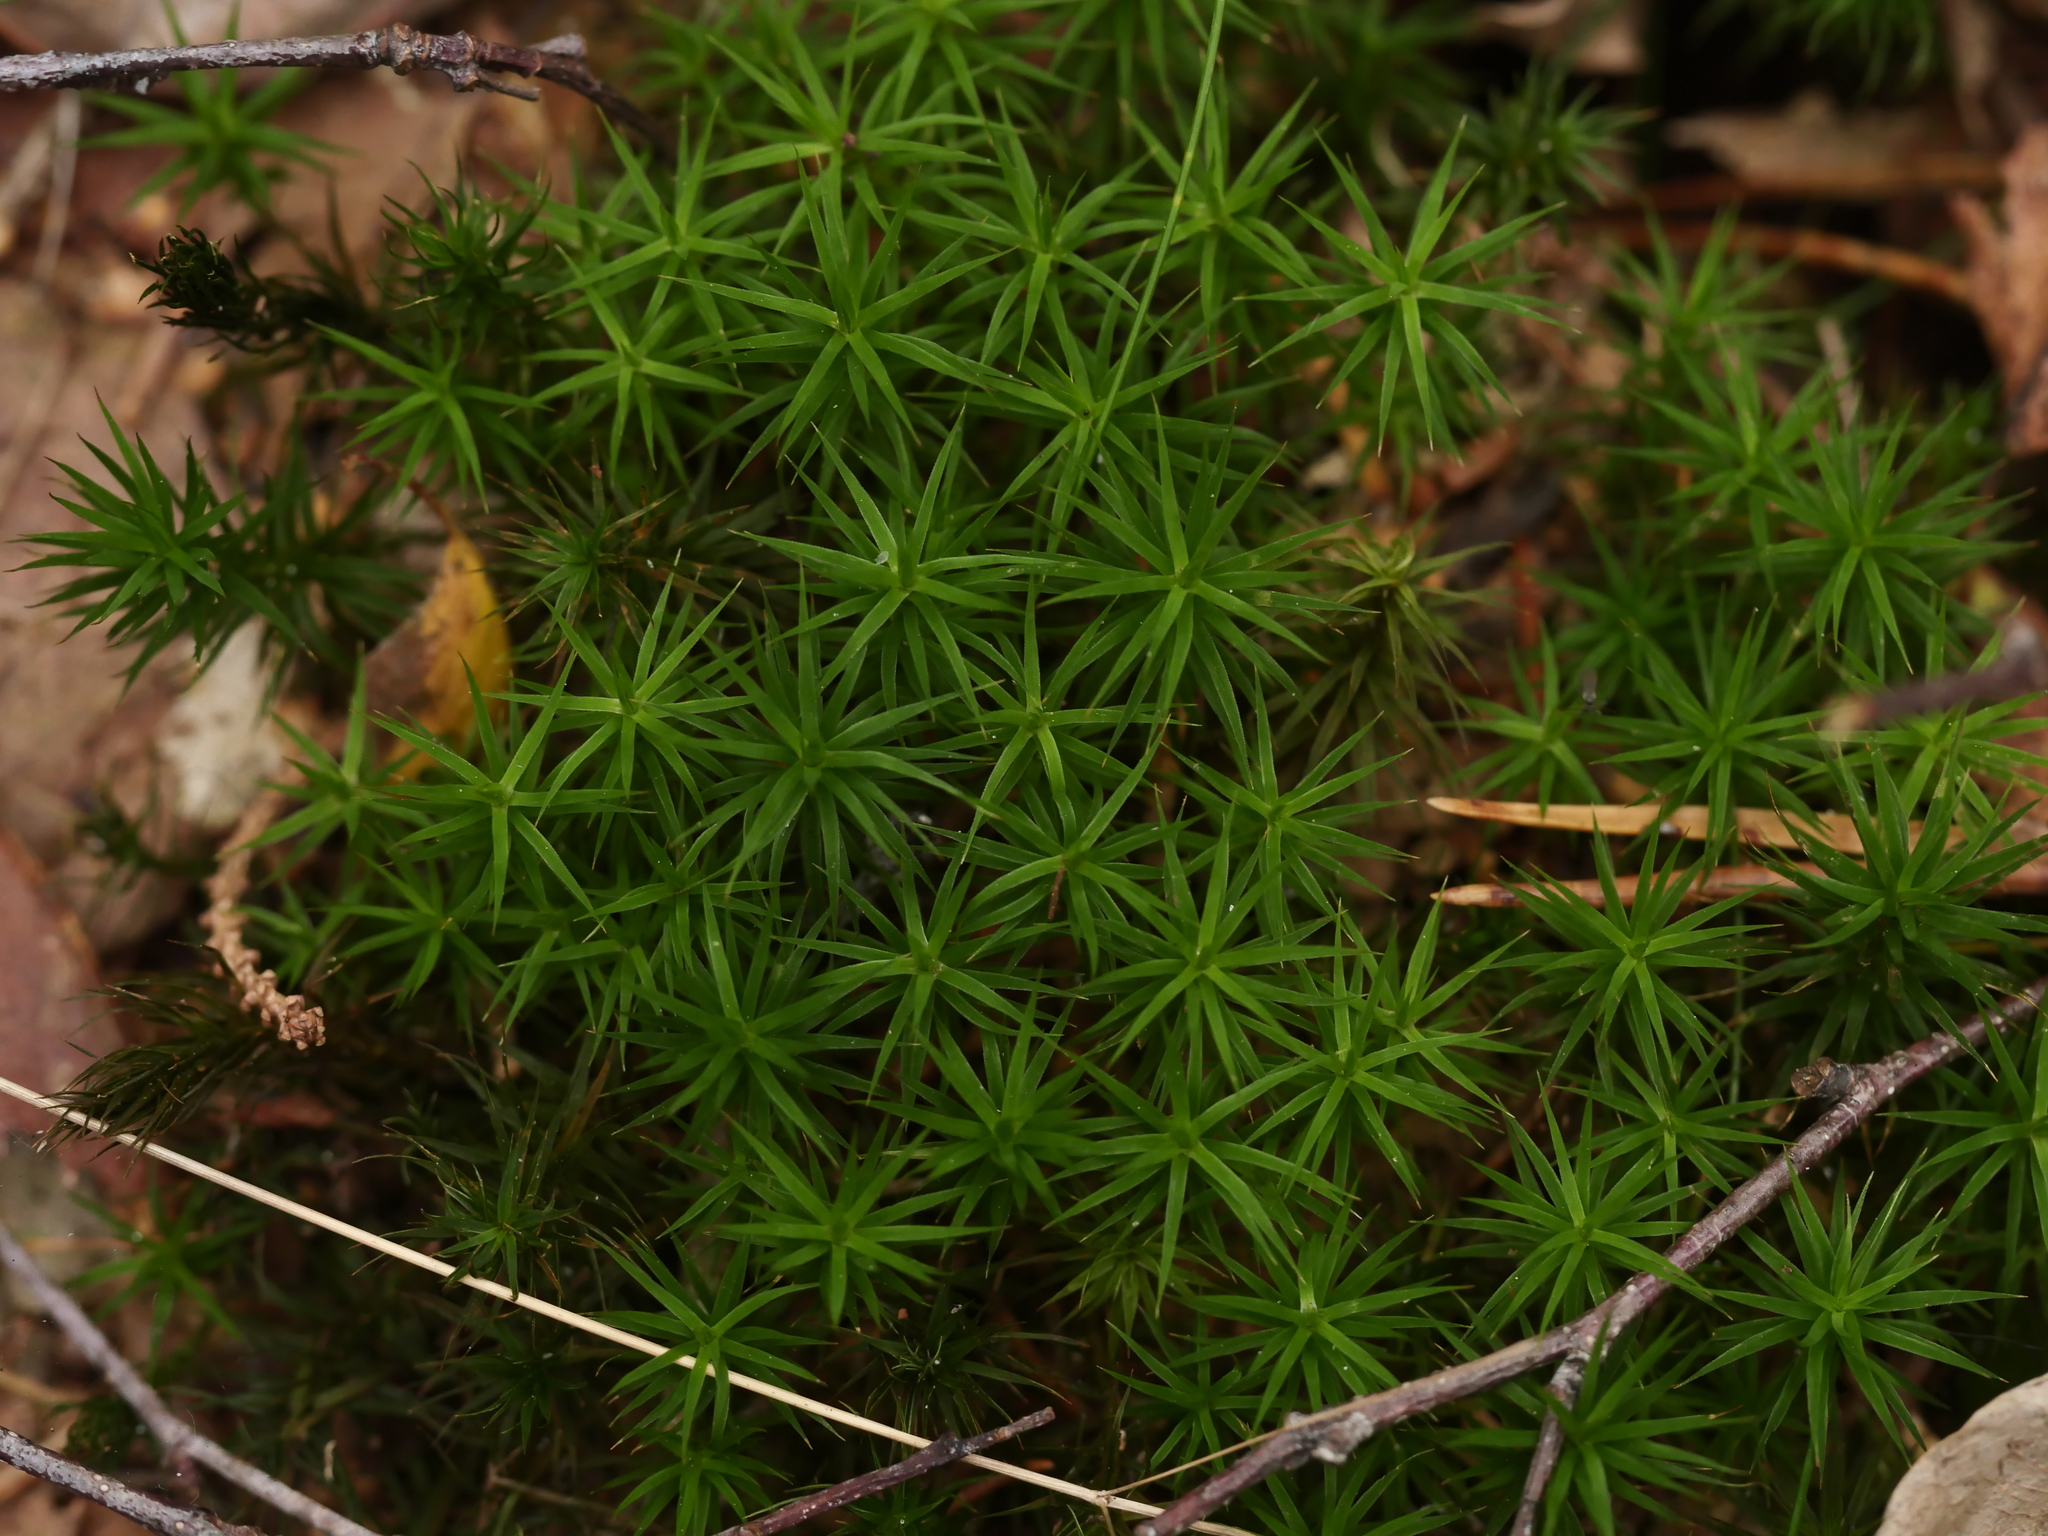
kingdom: Plantae
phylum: Bryophyta
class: Polytrichopsida
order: Polytrichales
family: Polytrichaceae
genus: Polytrichum
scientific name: Polytrichum formosum
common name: Bank haircap moss
